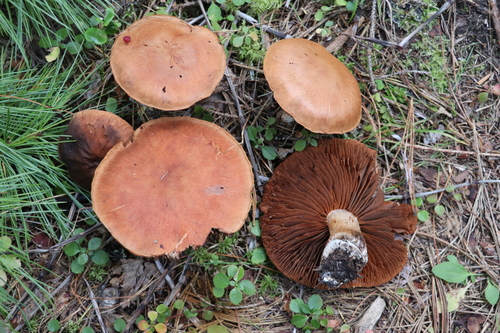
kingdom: Fungi
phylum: Basidiomycota
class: Agaricomycetes
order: Agaricales
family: Cortinariaceae
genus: Cortinarius
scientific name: Cortinarius
